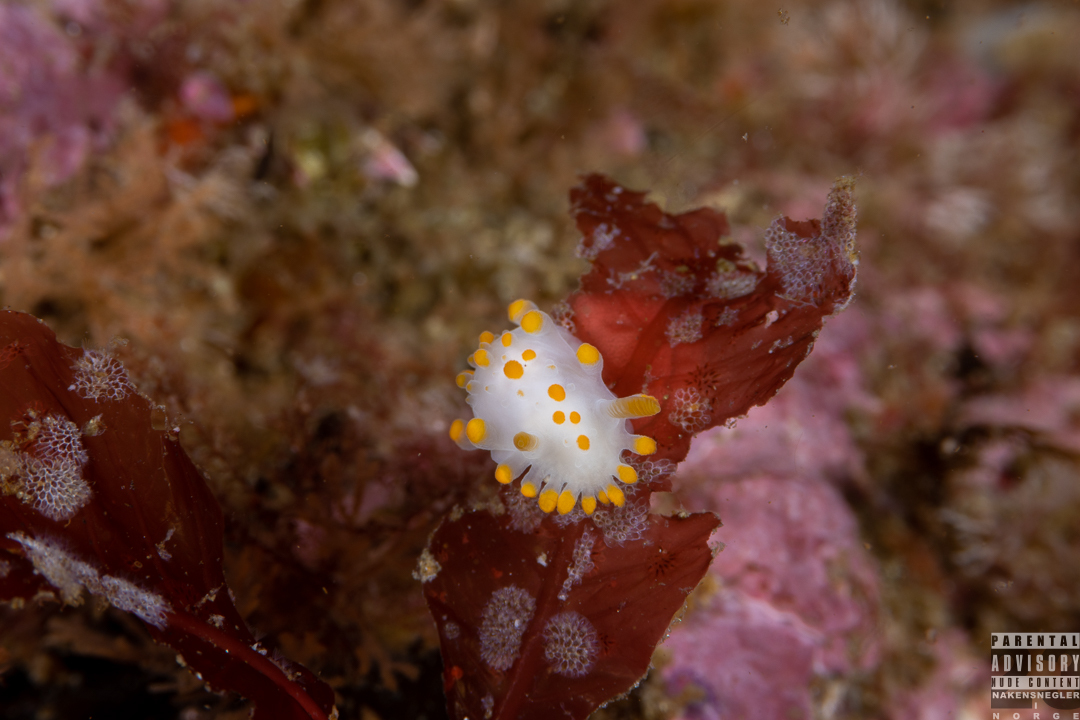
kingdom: Animalia
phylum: Mollusca
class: Gastropoda
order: Nudibranchia
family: Polyceridae
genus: Limacia
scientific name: Limacia clavigera
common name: Orange-clubbed sea slug
